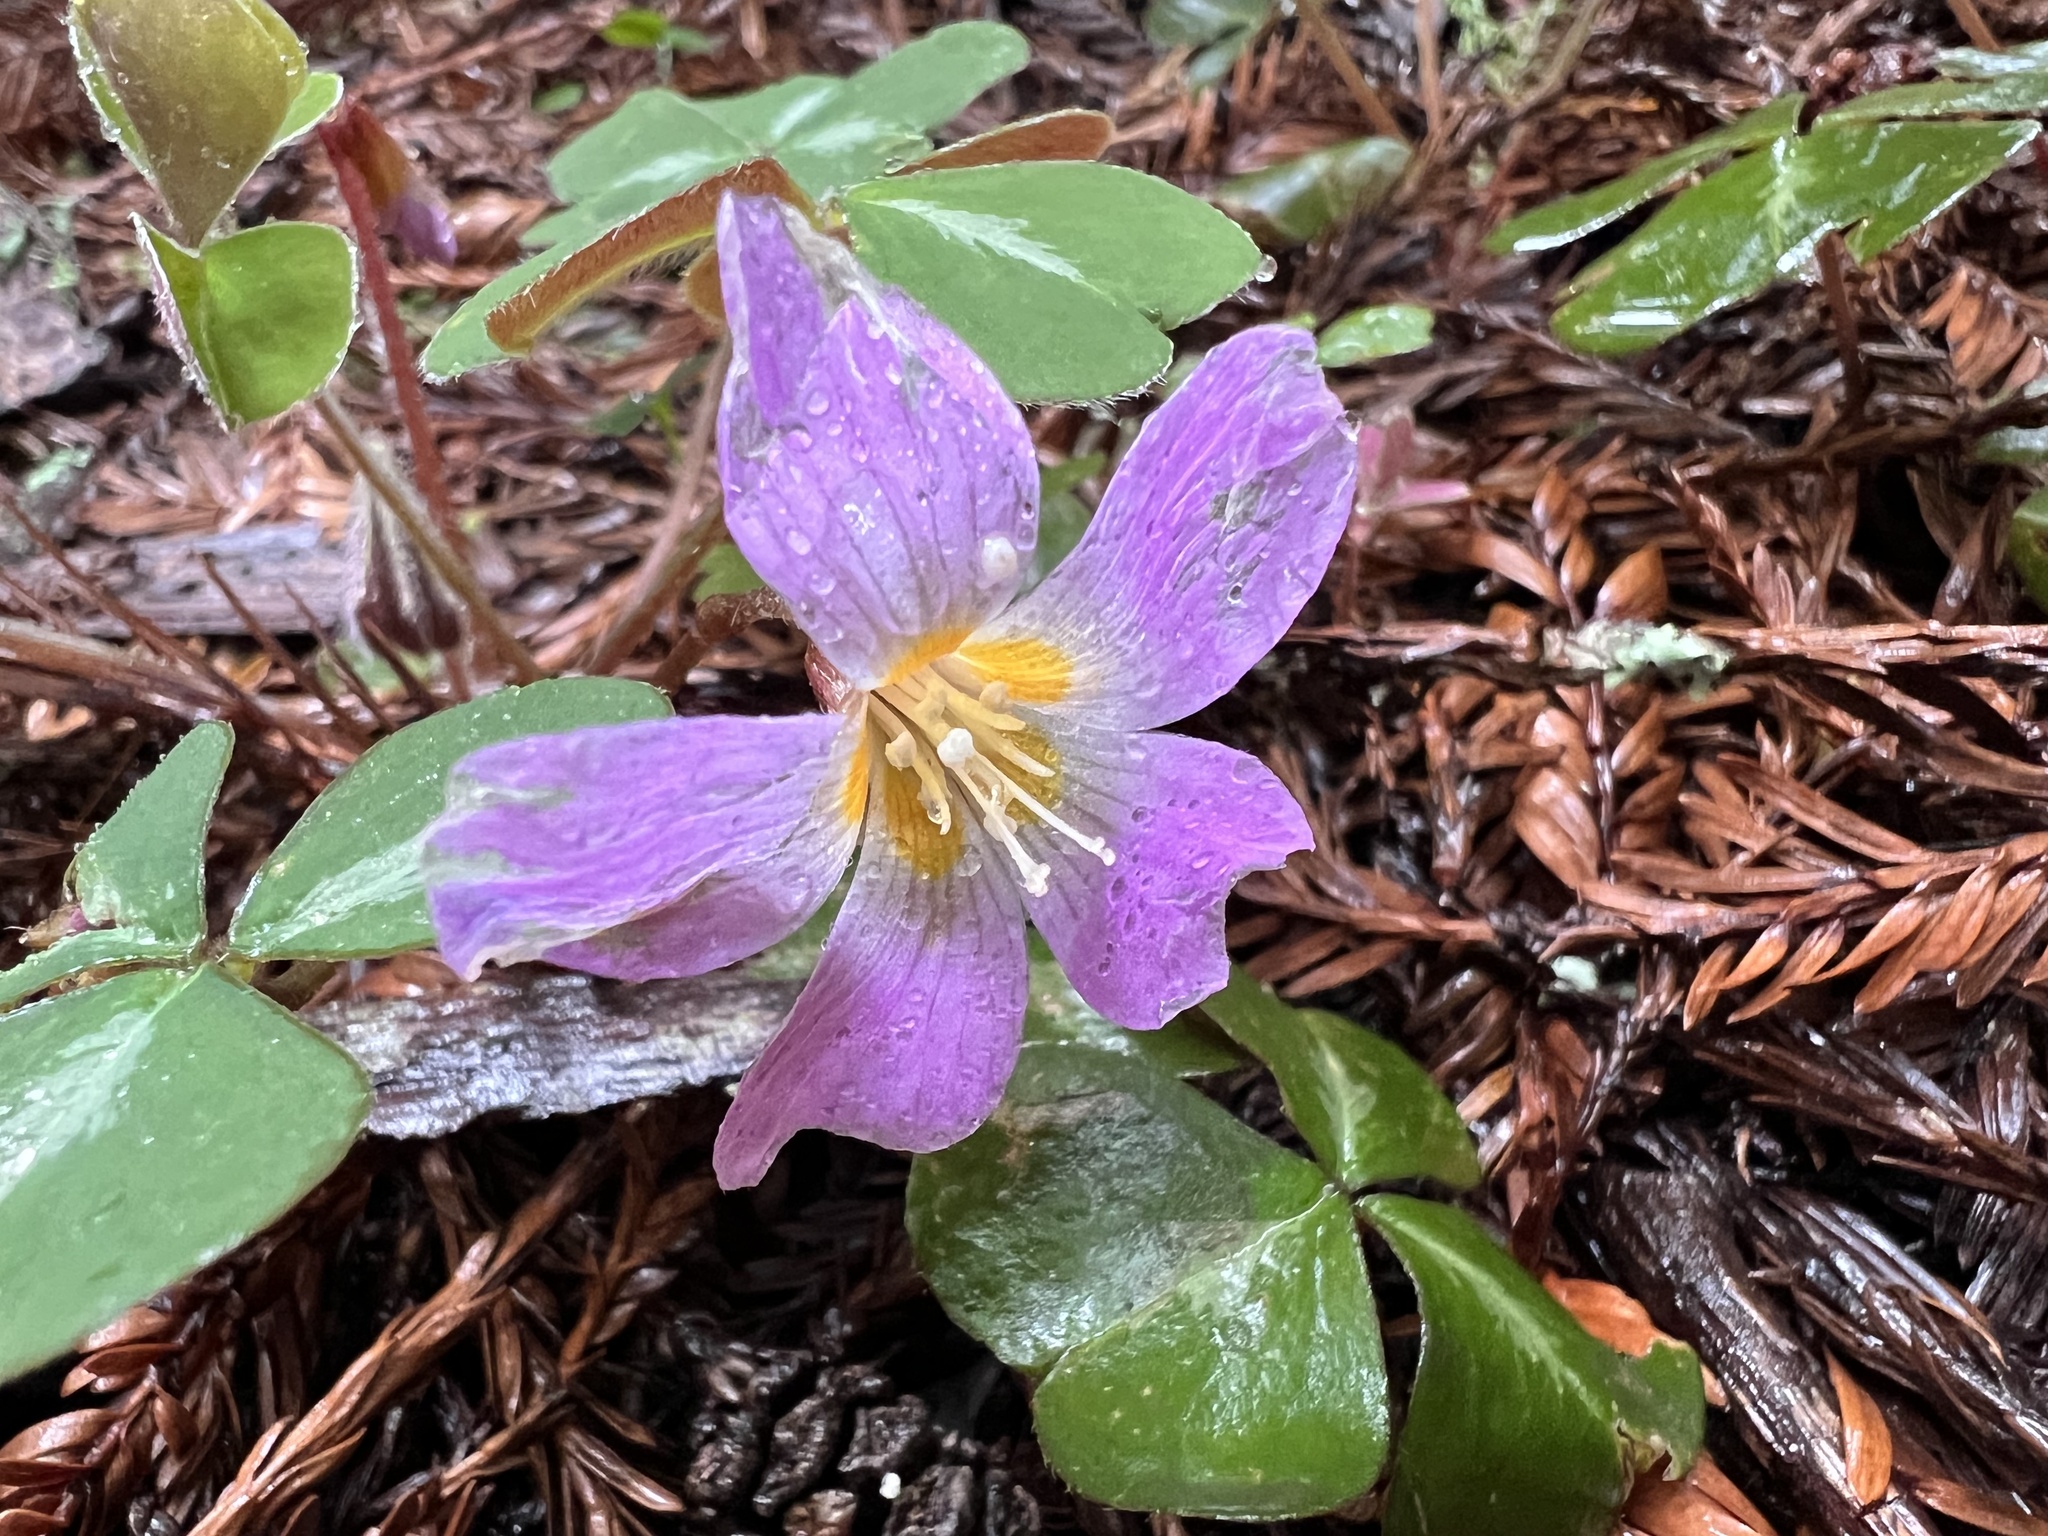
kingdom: Plantae
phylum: Tracheophyta
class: Magnoliopsida
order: Oxalidales
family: Oxalidaceae
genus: Oxalis
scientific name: Oxalis oregana
